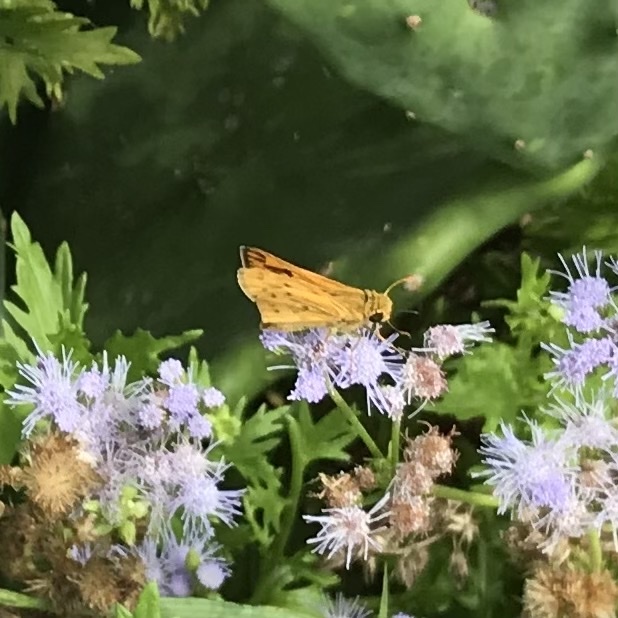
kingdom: Animalia
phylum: Arthropoda
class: Insecta
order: Lepidoptera
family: Hesperiidae
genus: Hylephila
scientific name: Hylephila phyleus
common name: Fiery skipper
